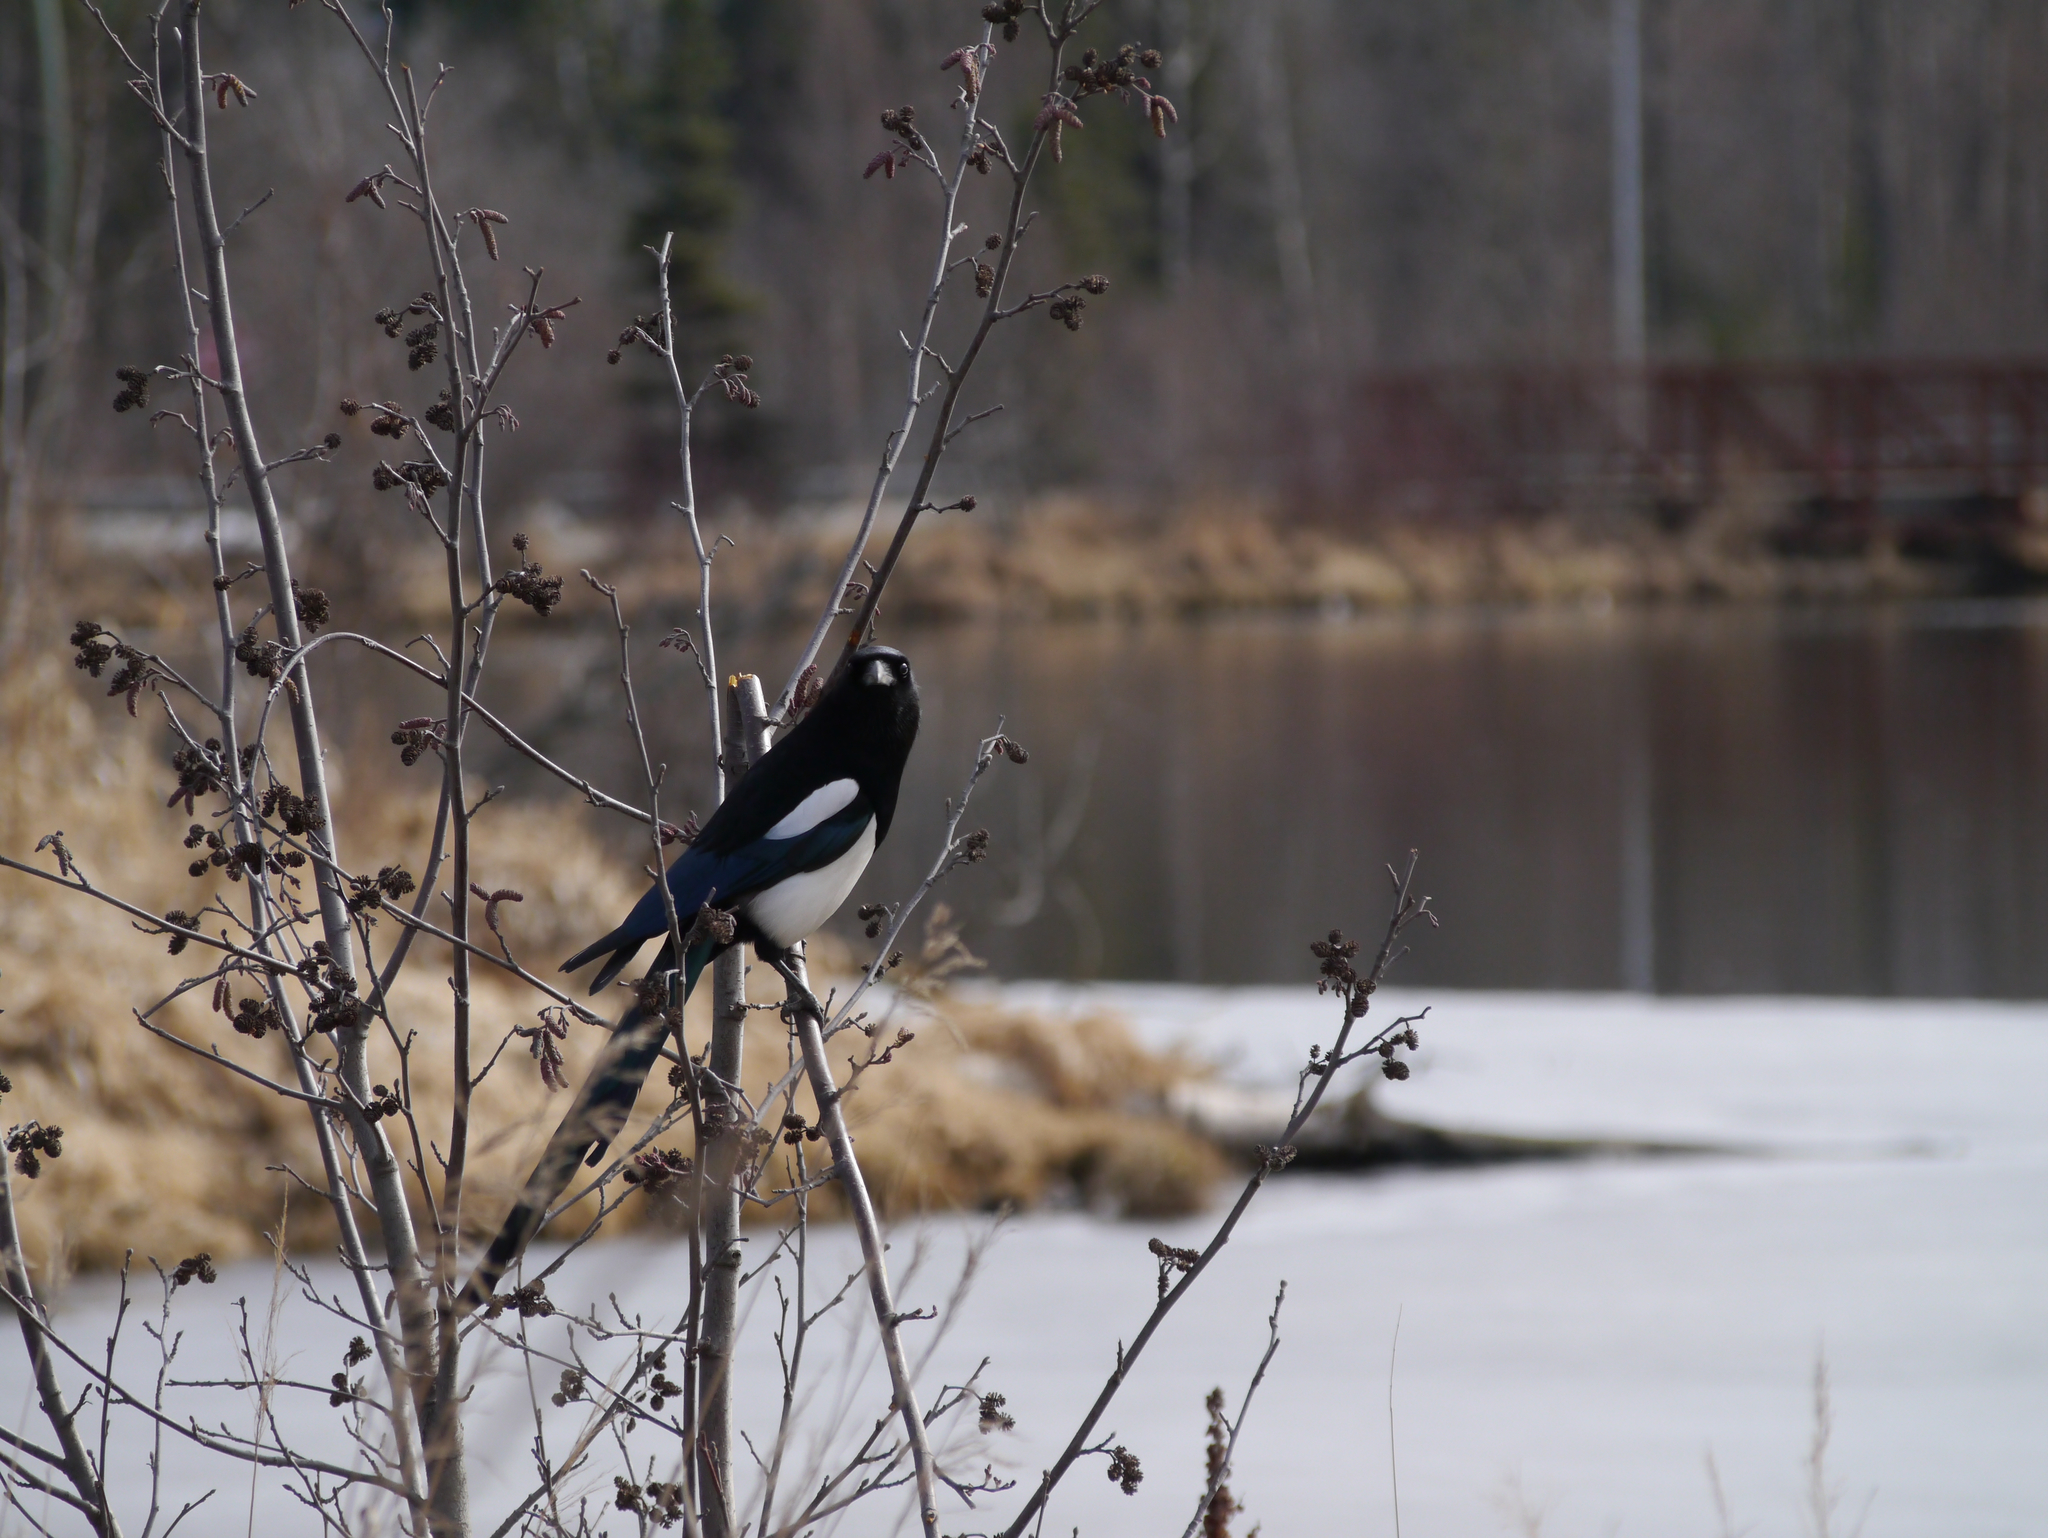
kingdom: Animalia
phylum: Chordata
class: Aves
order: Passeriformes
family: Corvidae
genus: Pica
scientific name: Pica hudsonia
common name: Black-billed magpie
